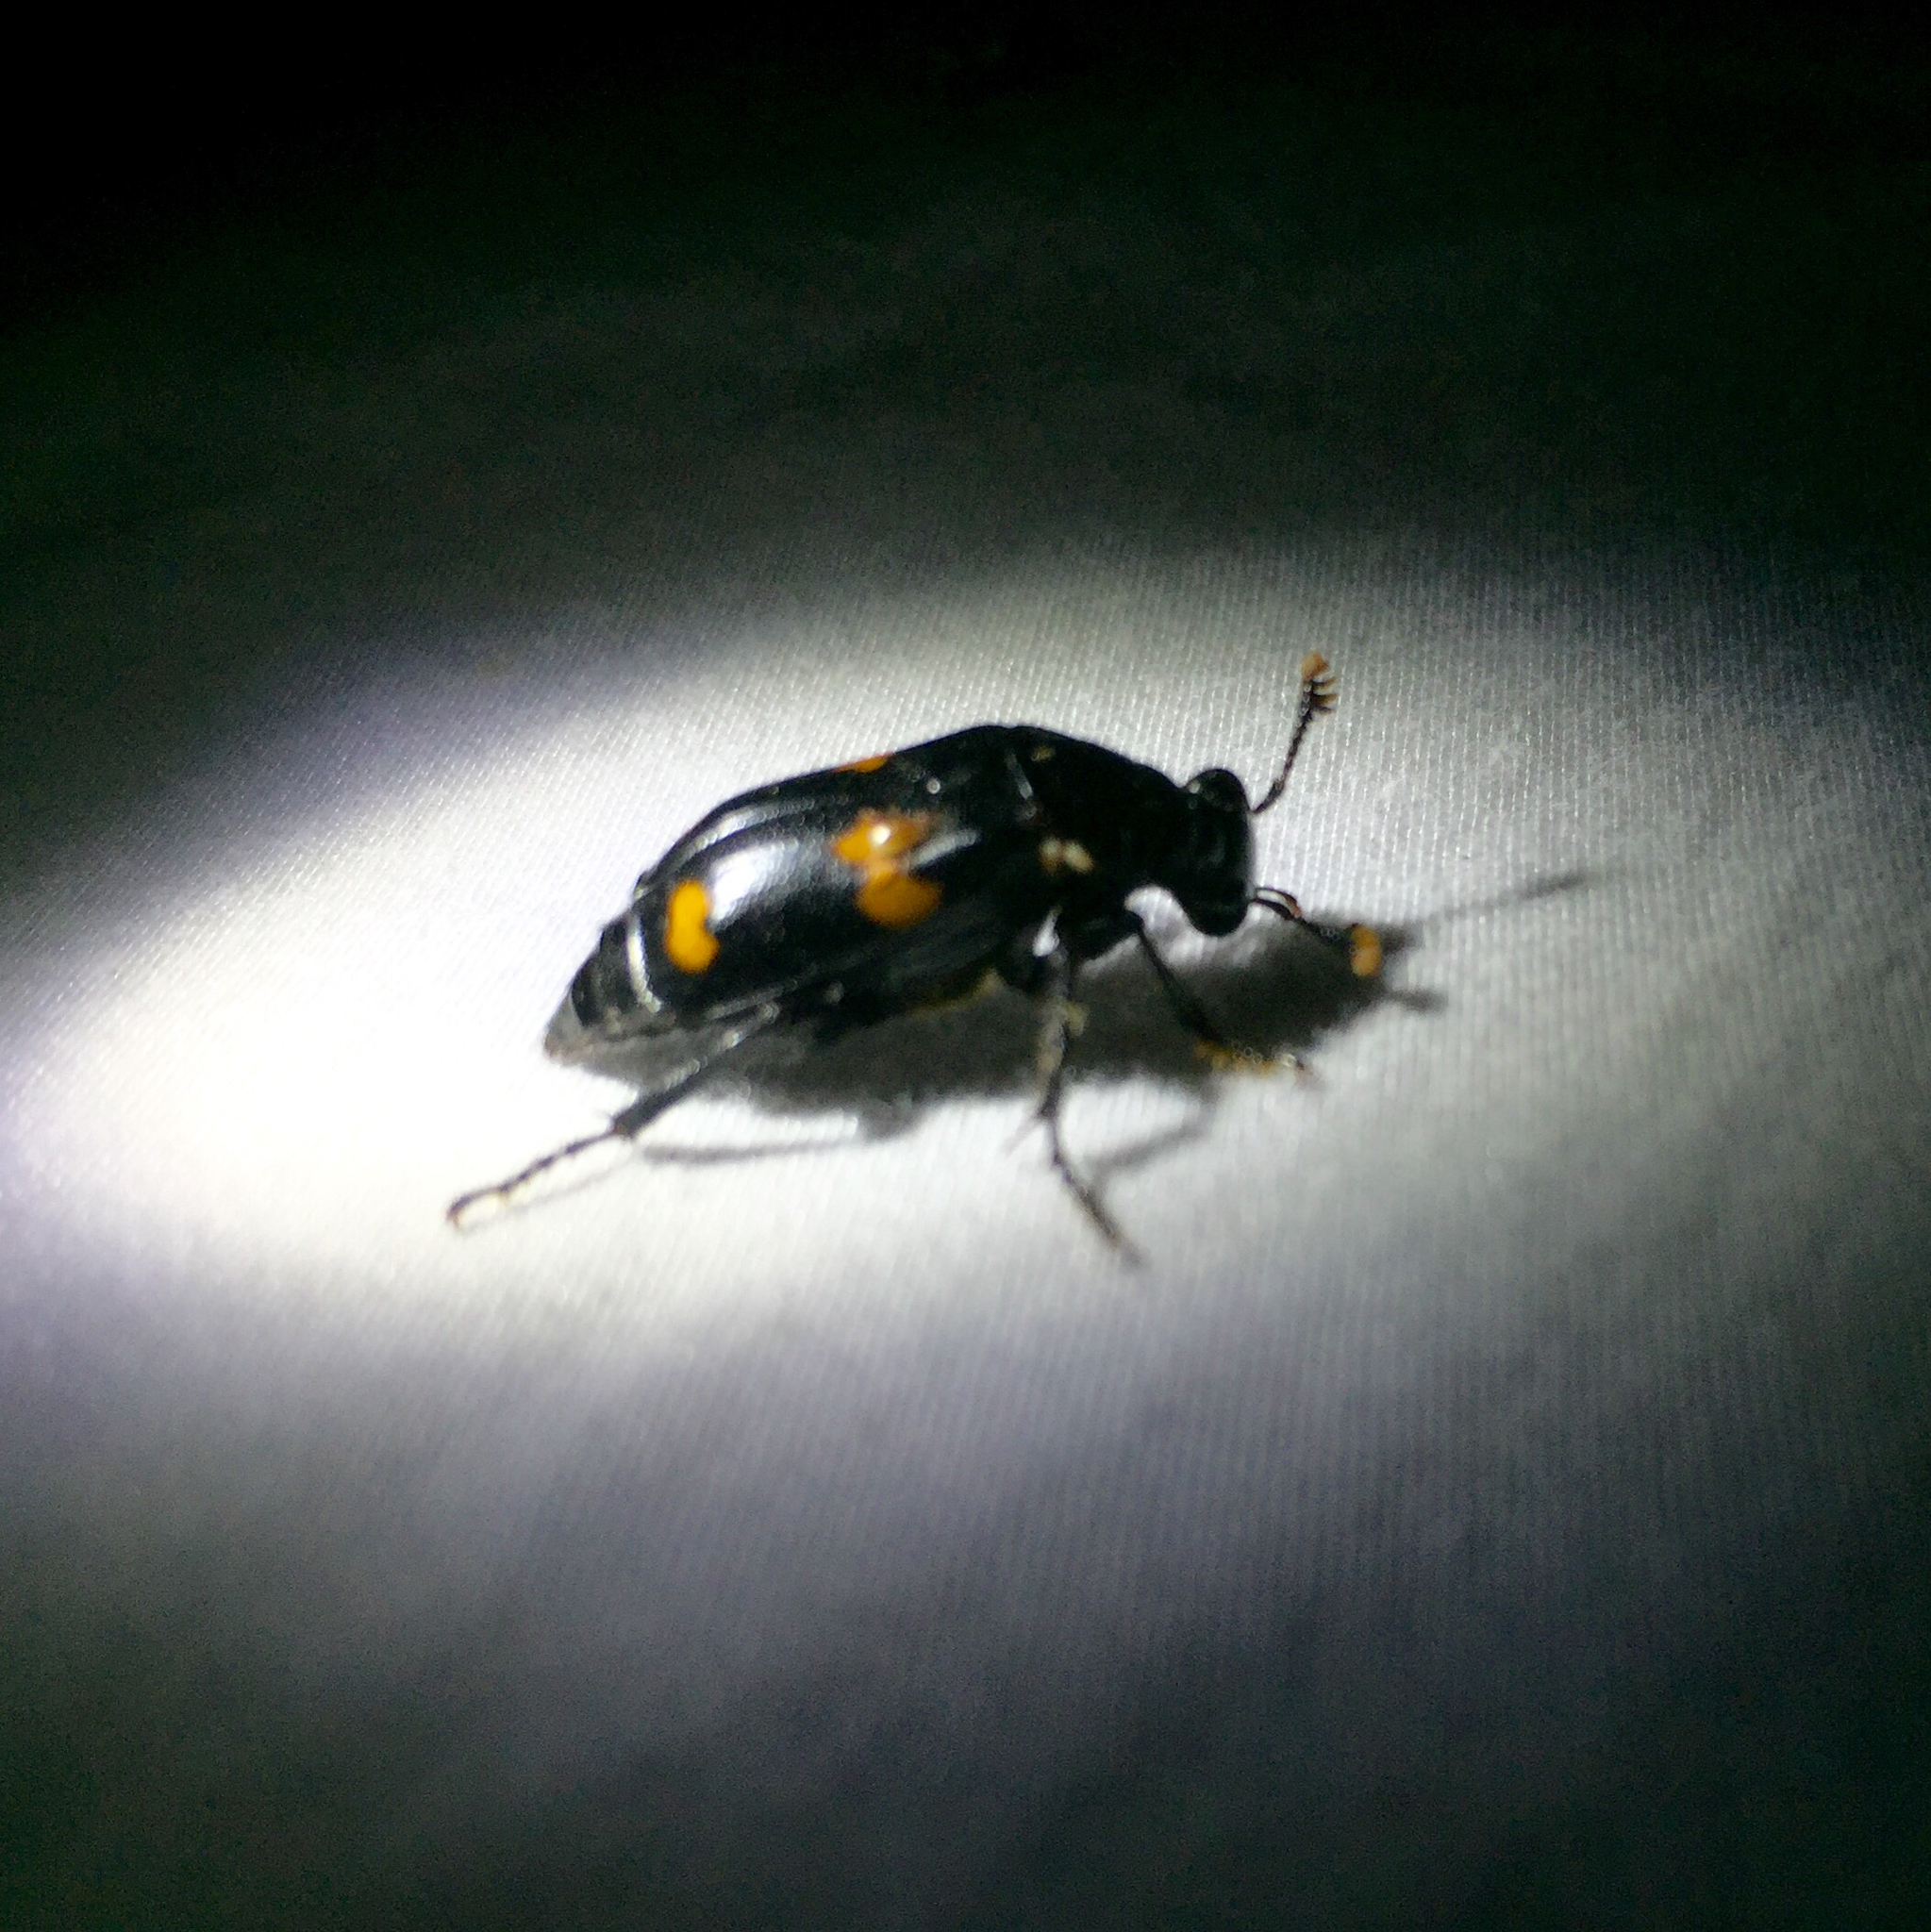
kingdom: Animalia
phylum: Arthropoda
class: Insecta
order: Coleoptera
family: Staphylinidae
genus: Nicrophorus
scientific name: Nicrophorus orbicollis
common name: Roundneck sexton beetle
